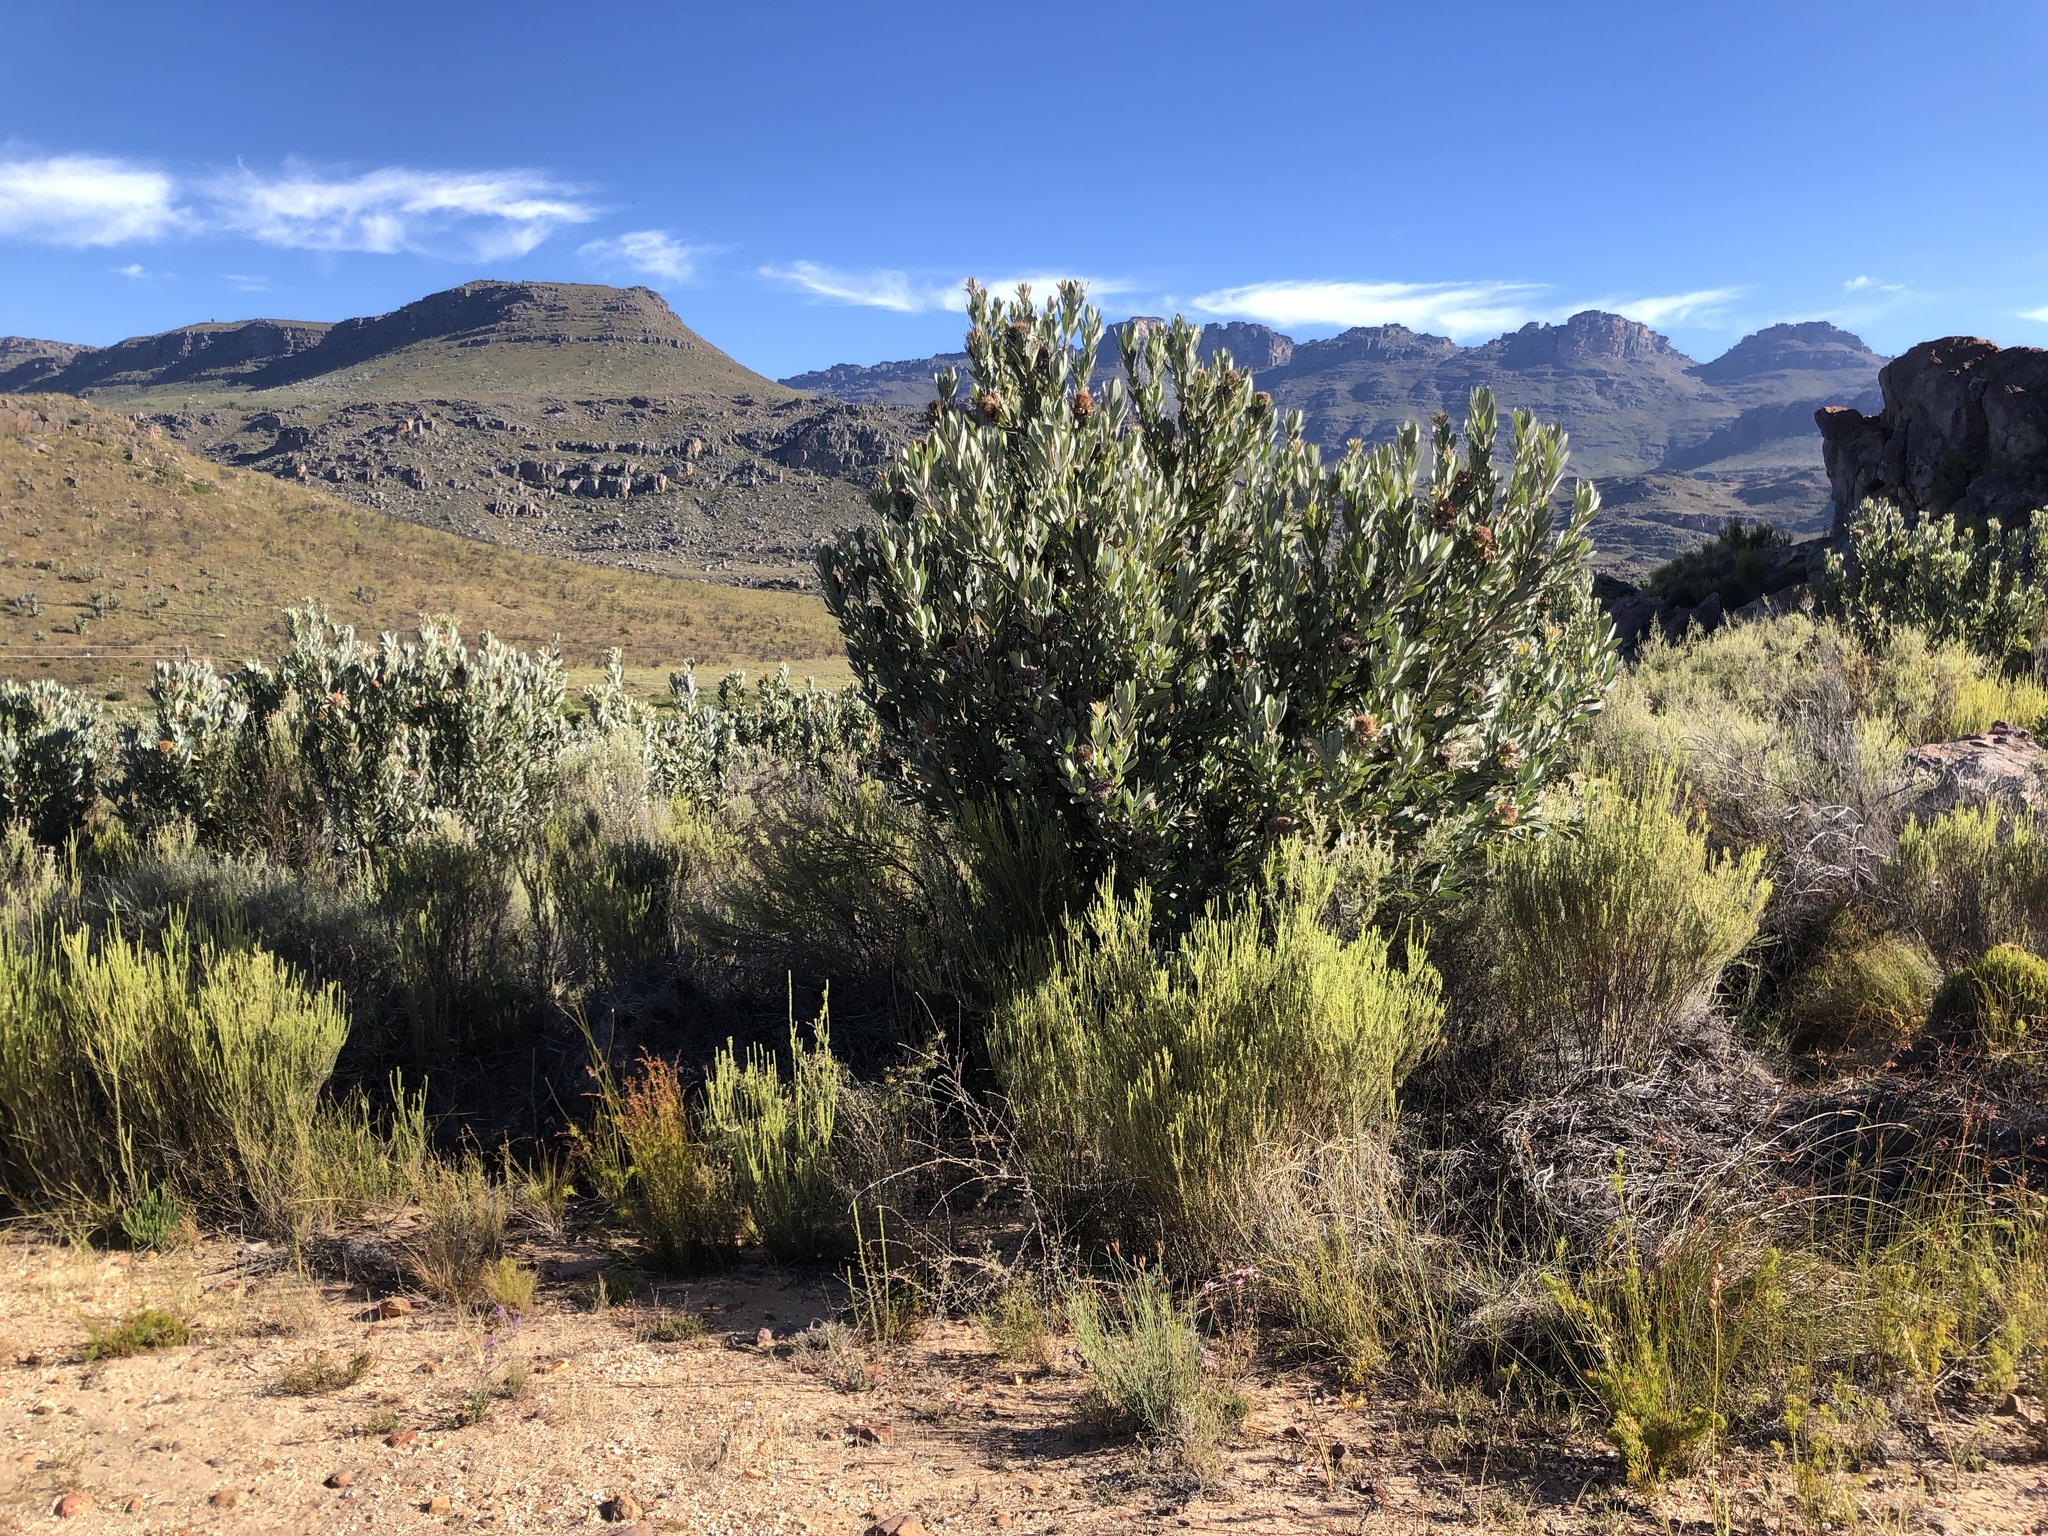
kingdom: Plantae
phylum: Tracheophyta
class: Magnoliopsida
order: Proteales
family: Proteaceae
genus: Protea
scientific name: Protea laurifolia
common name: Grey-leaf sugarbsh
